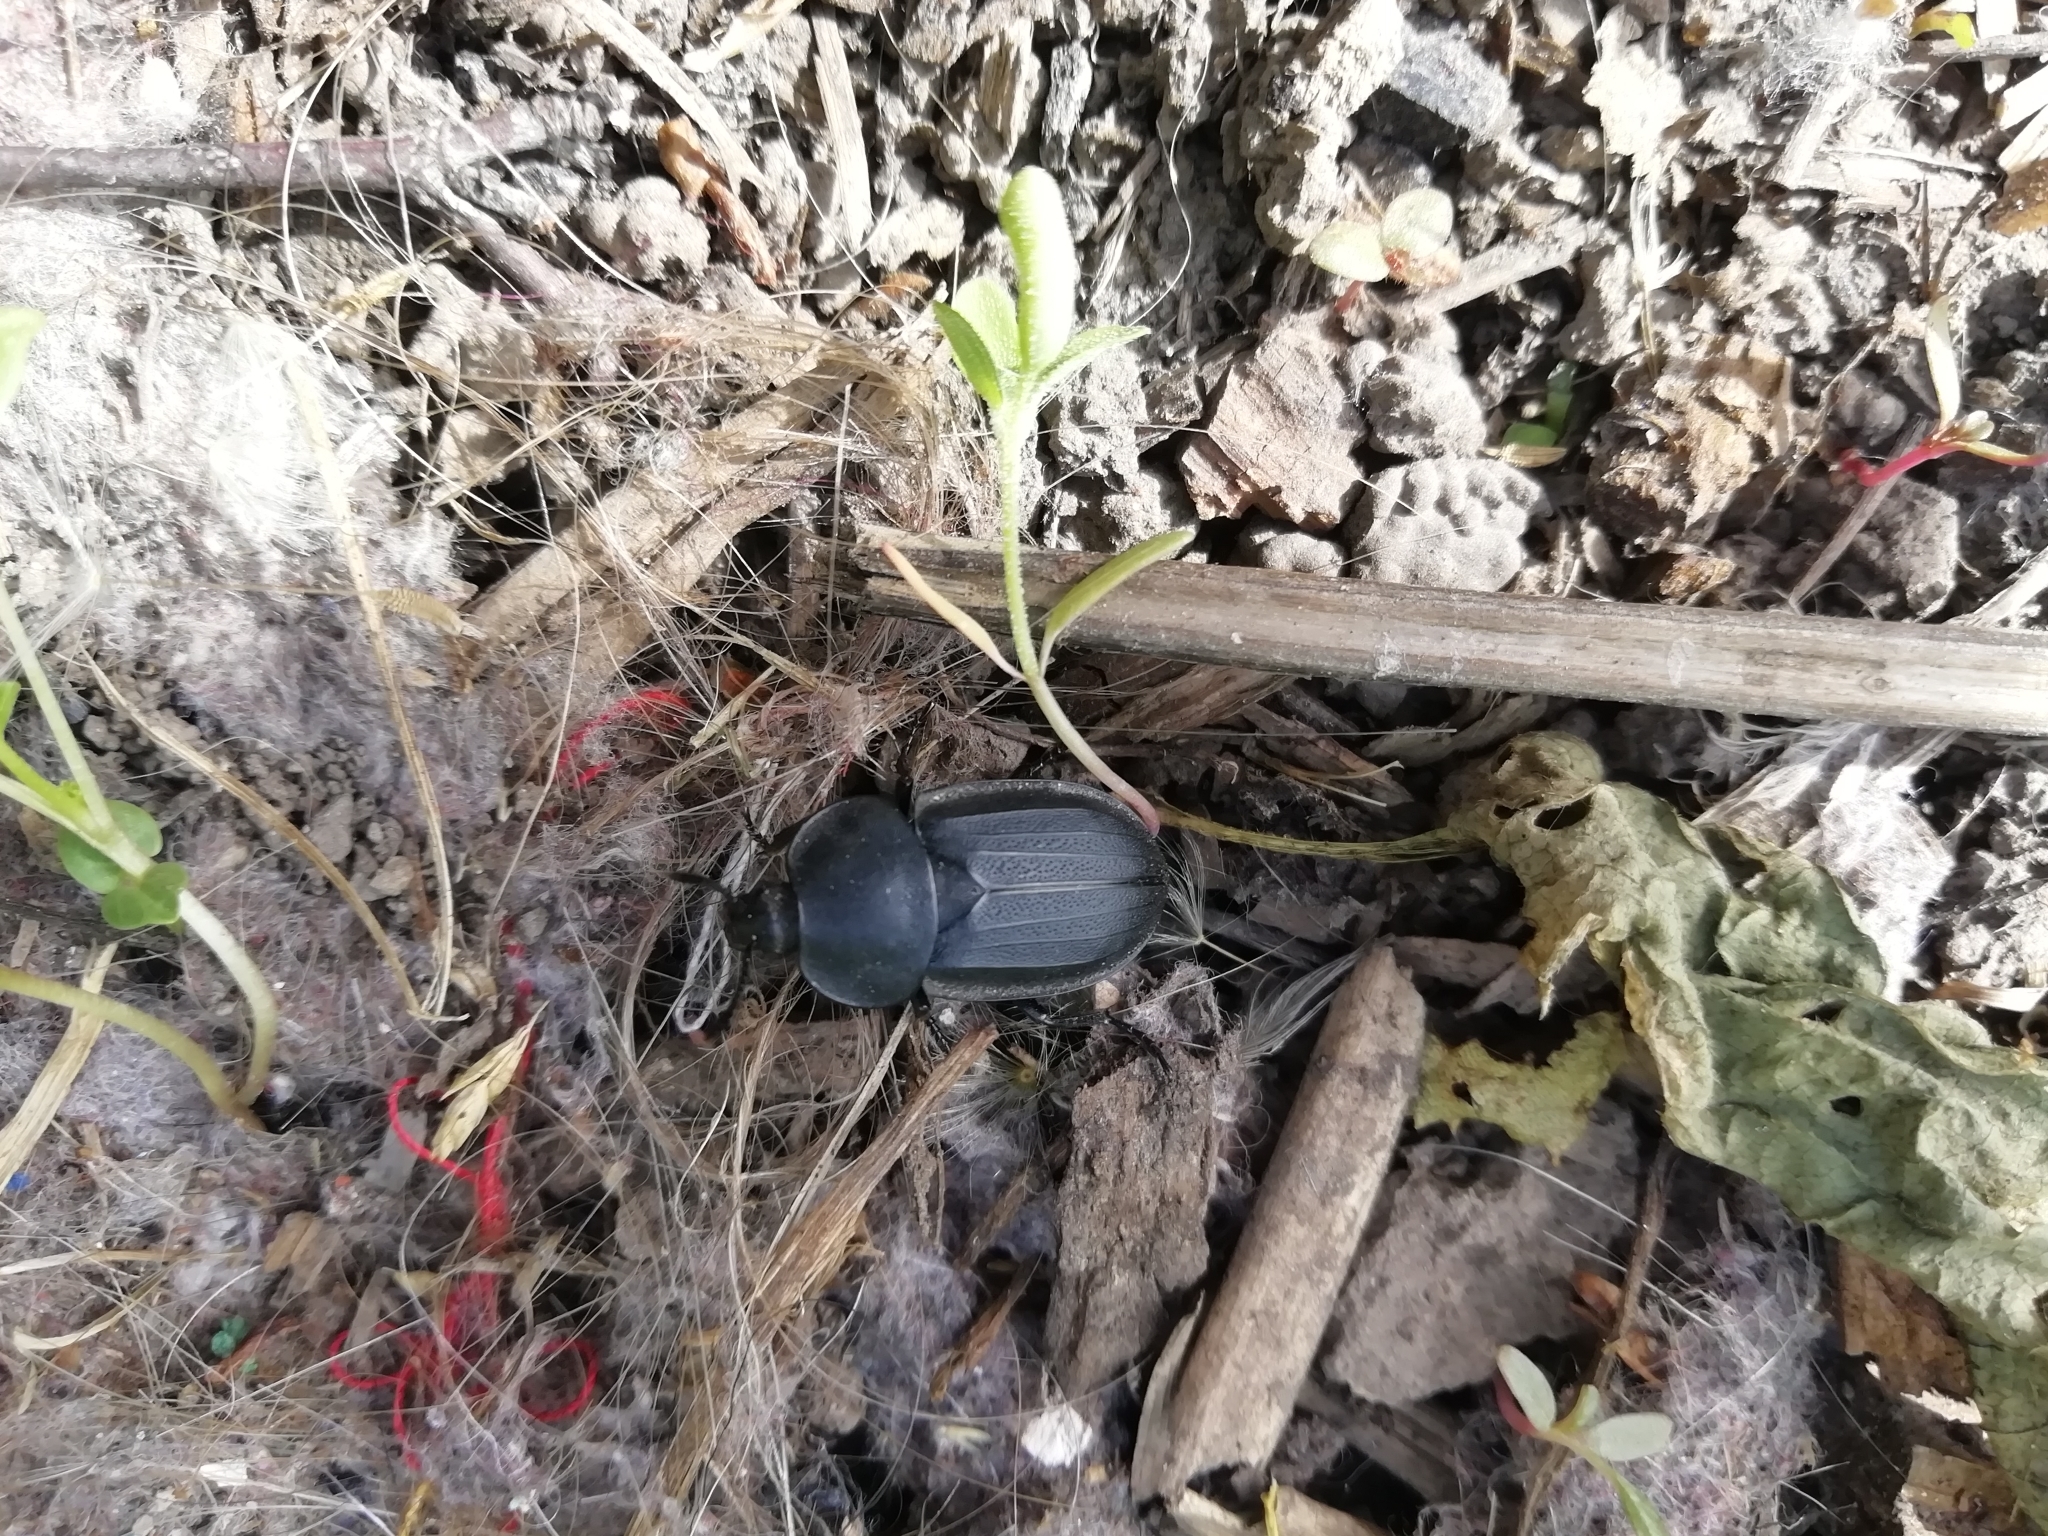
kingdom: Animalia
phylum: Arthropoda
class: Insecta
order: Coleoptera
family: Staphylinidae
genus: Silpha
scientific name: Silpha obscura
